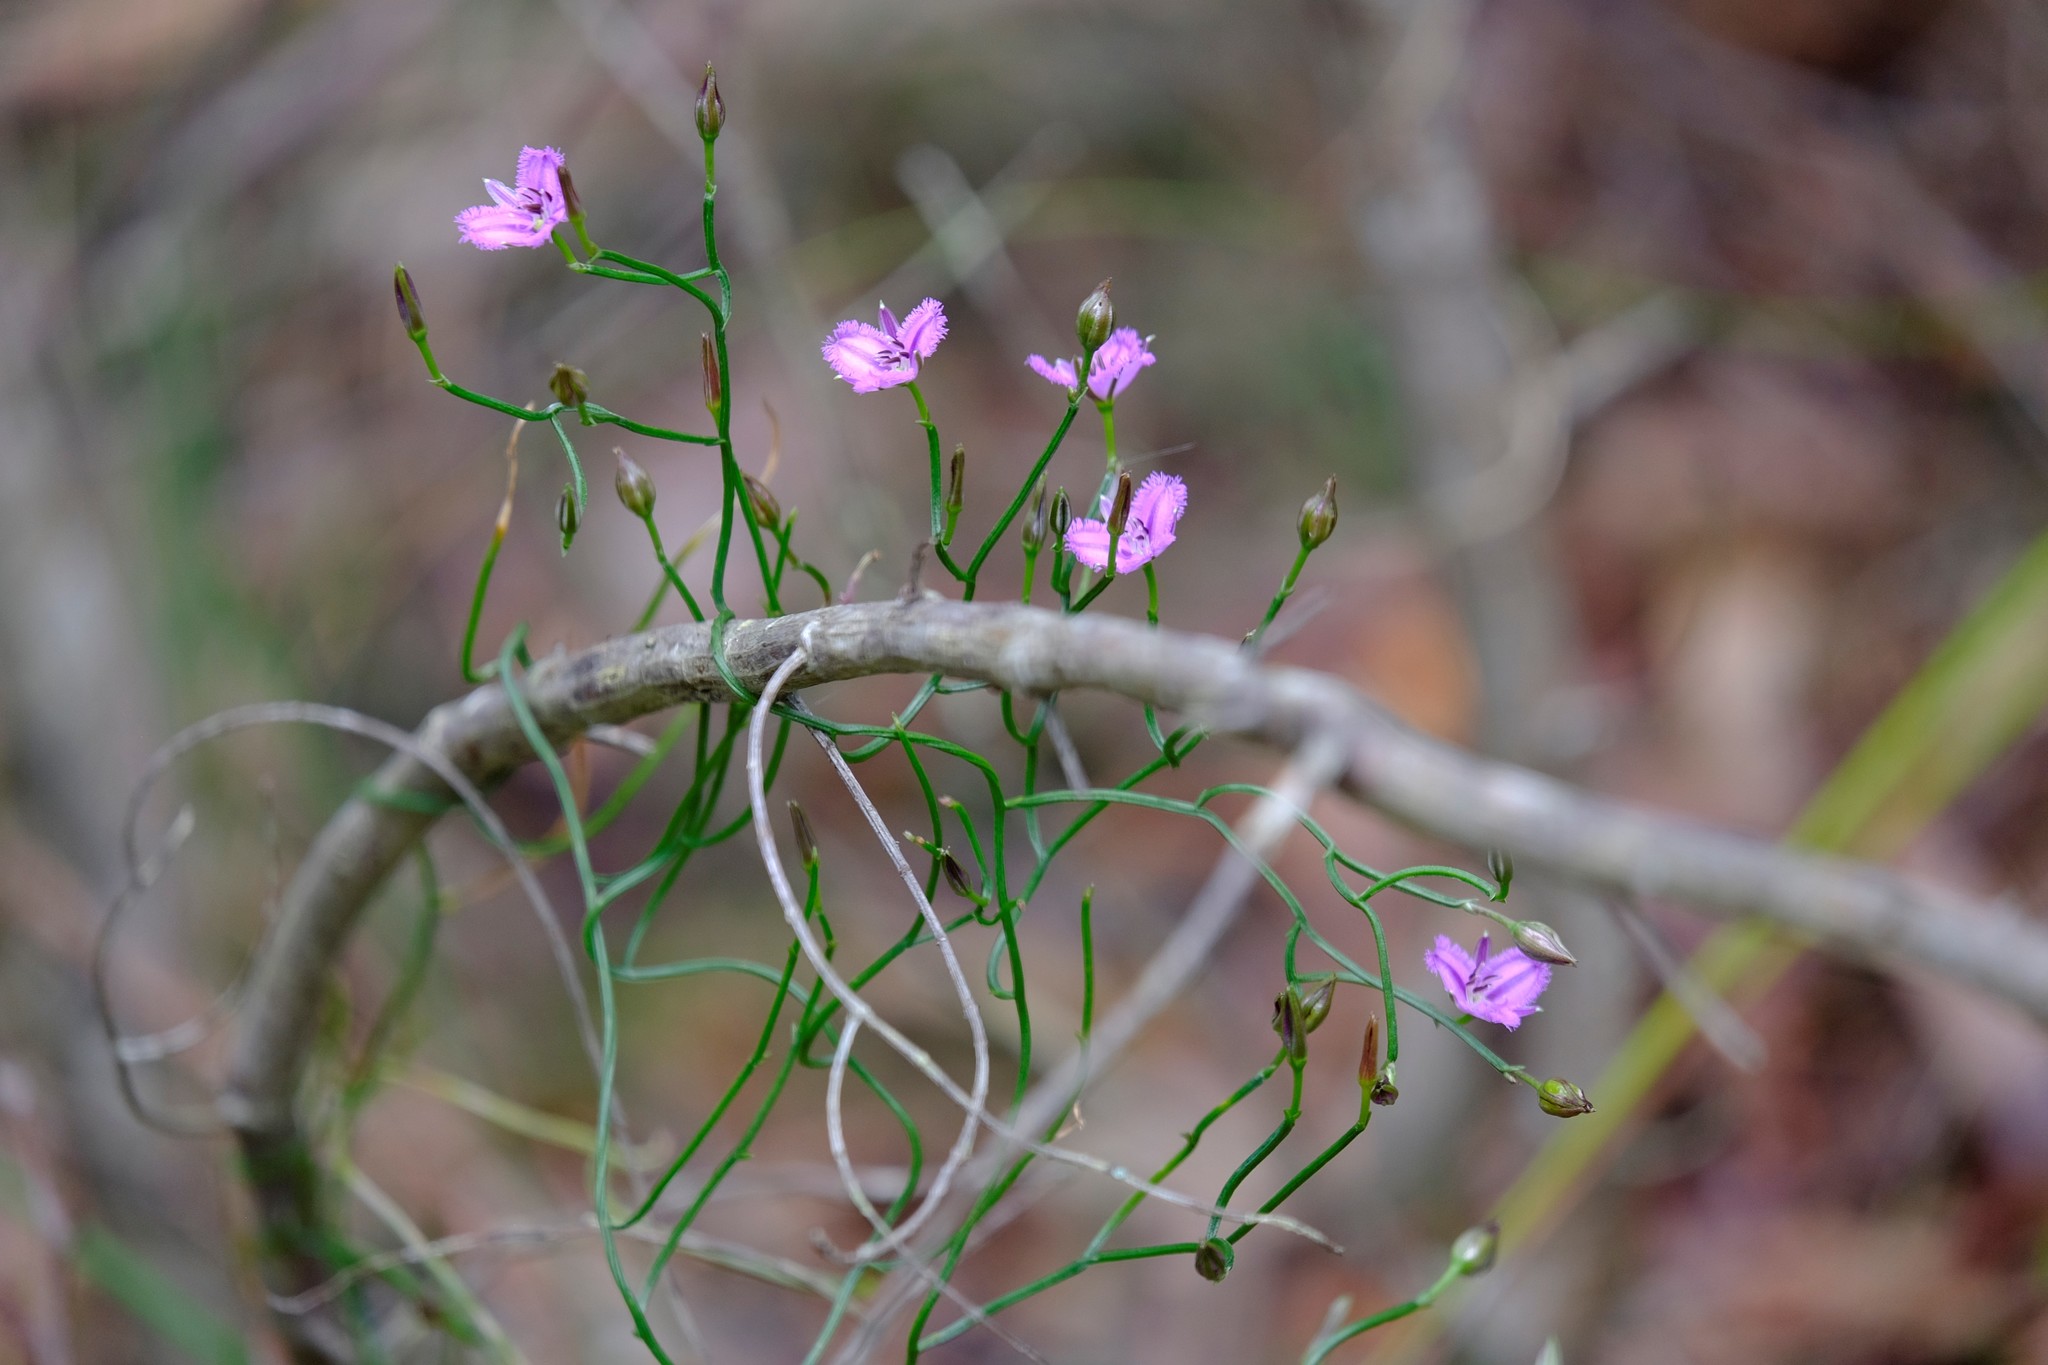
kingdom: Plantae
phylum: Tracheophyta
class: Liliopsida
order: Asparagales
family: Asparagaceae
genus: Thysanotus
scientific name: Thysanotus patersonii
